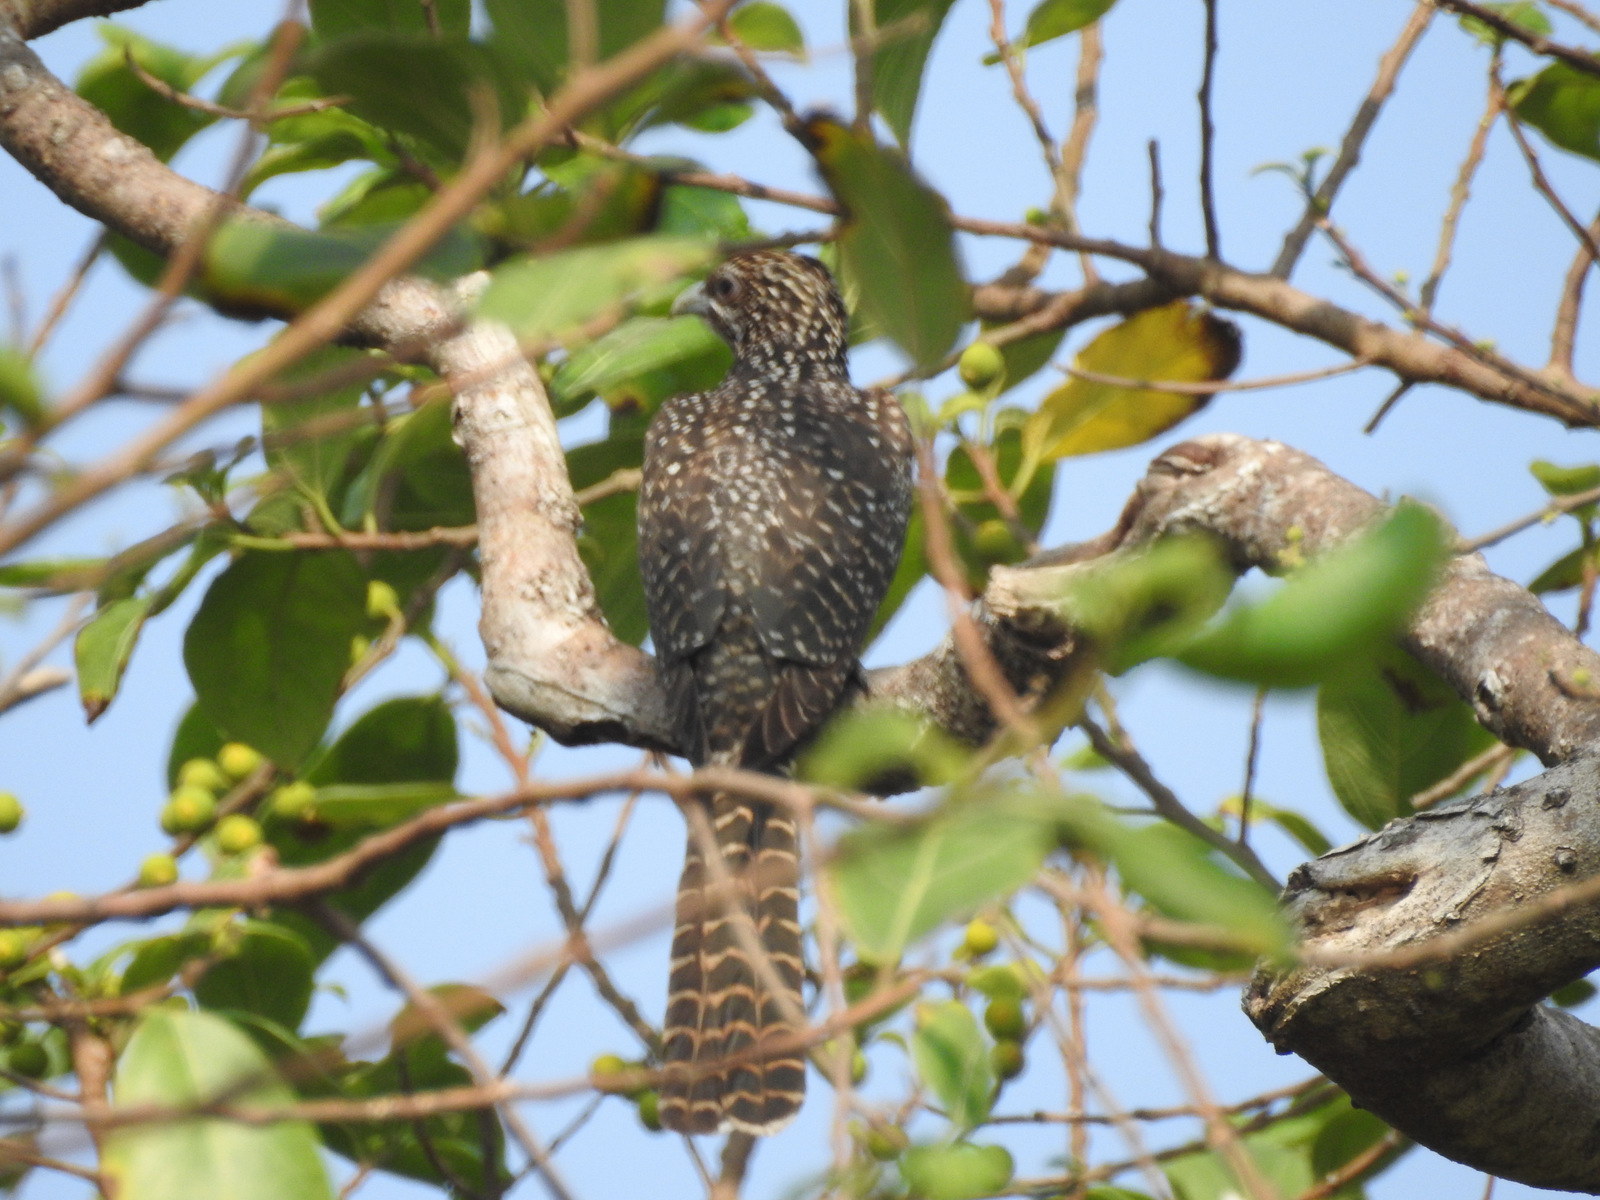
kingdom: Animalia
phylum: Chordata
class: Aves
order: Cuculiformes
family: Cuculidae
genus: Eudynamys
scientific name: Eudynamys scolopaceus
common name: Asian koel
